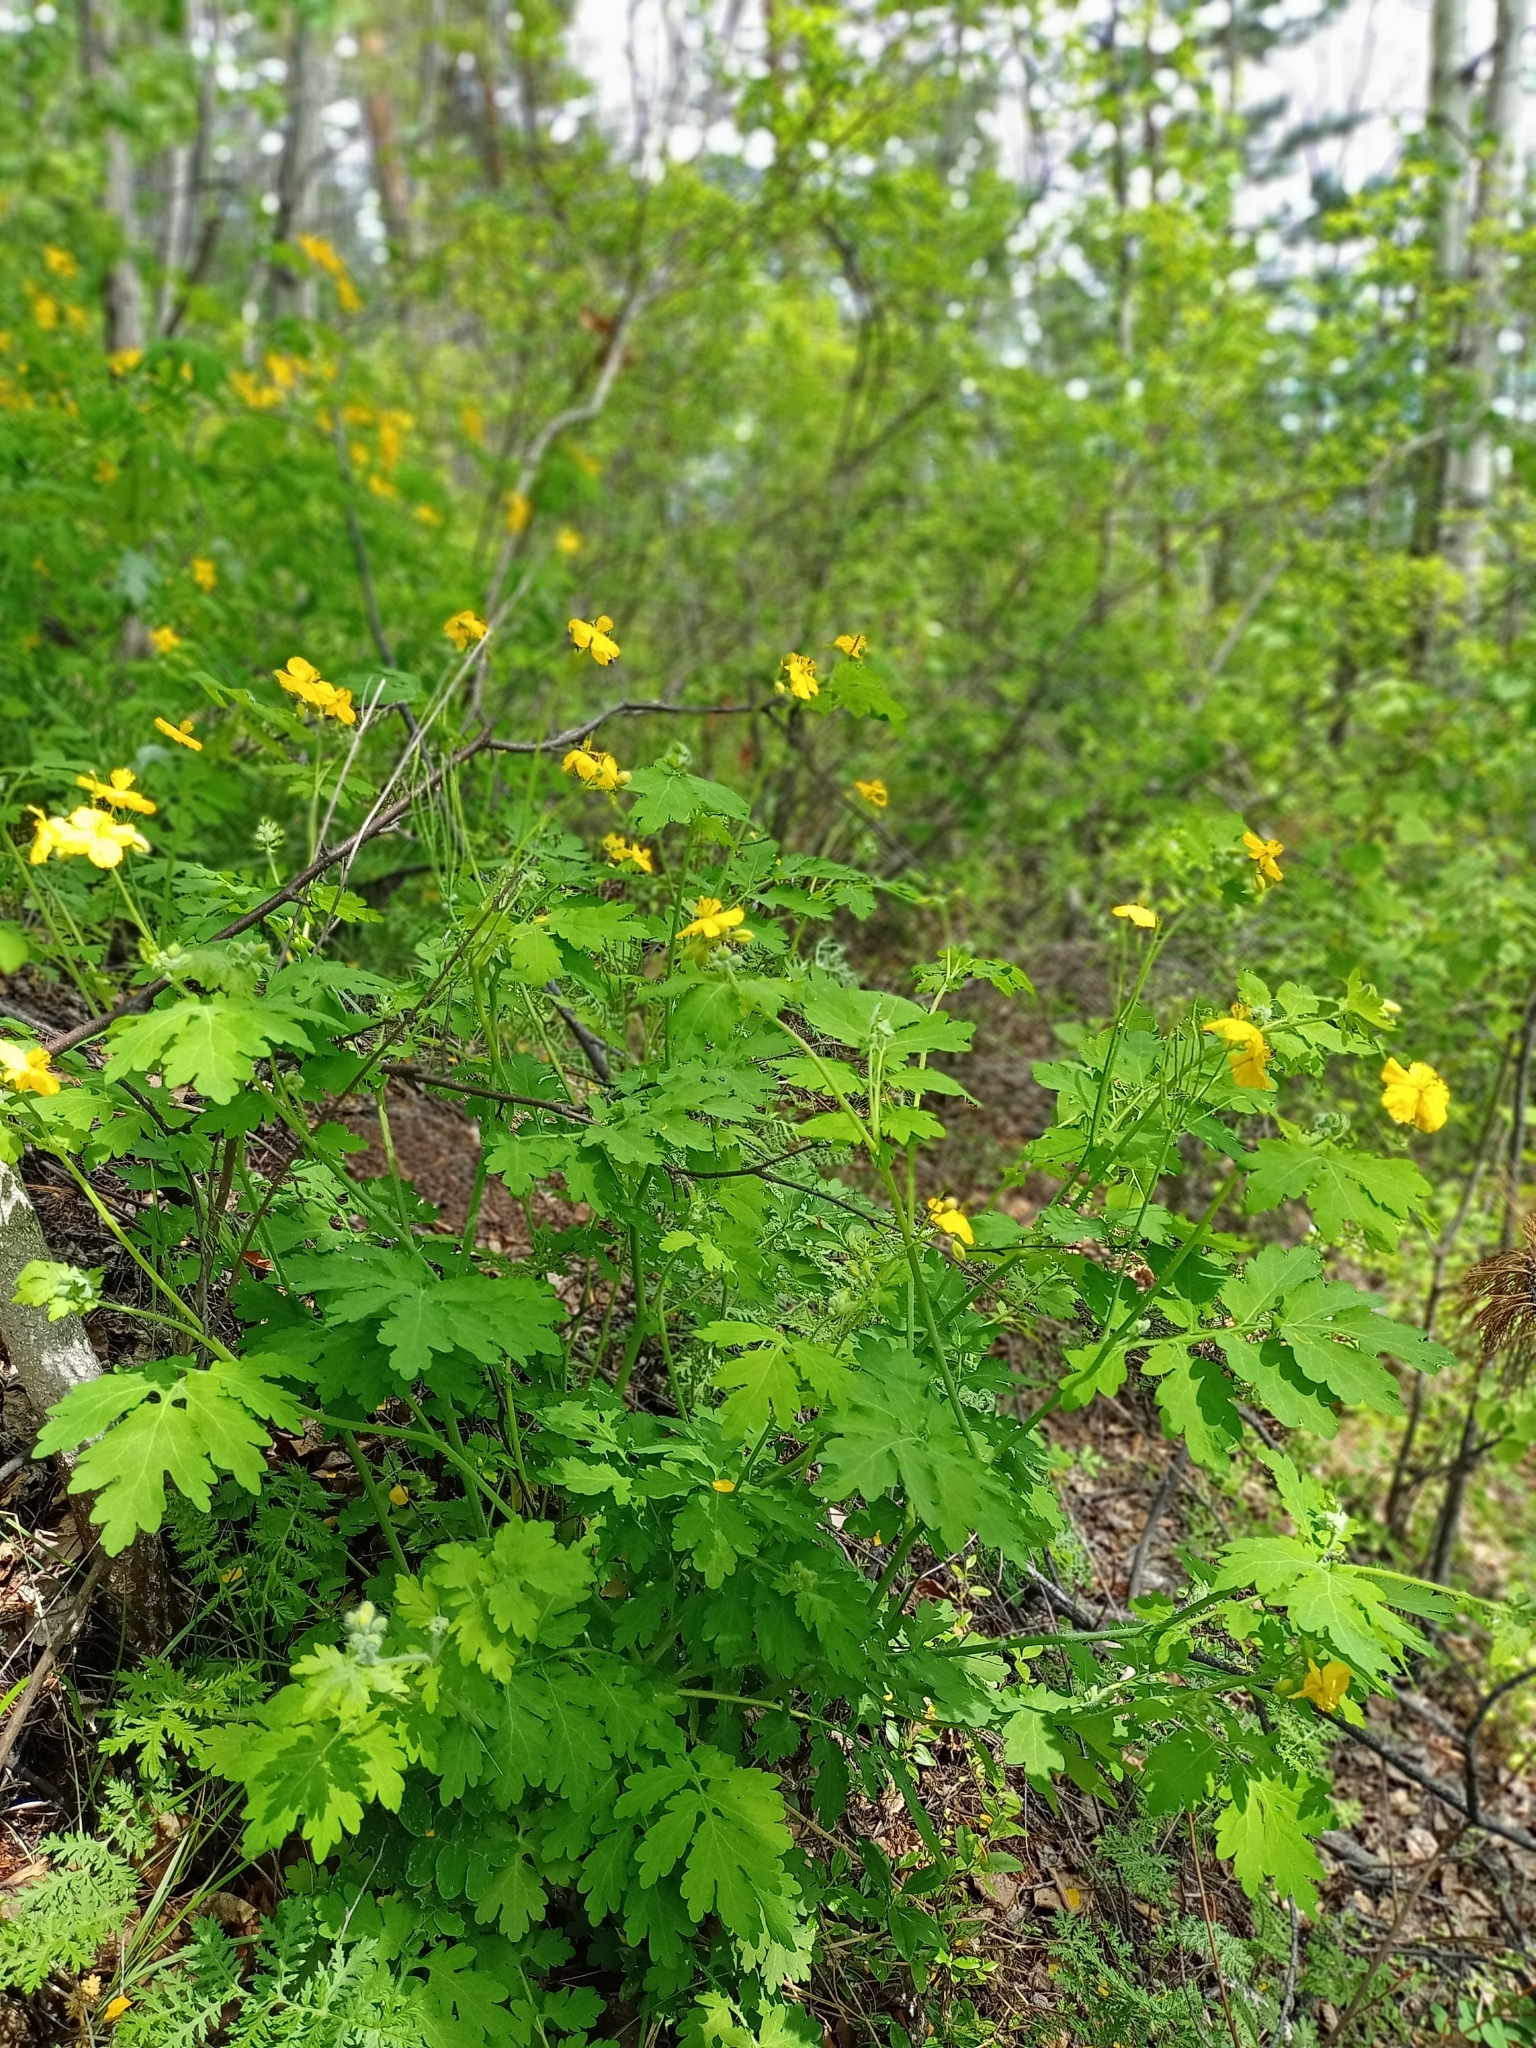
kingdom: Plantae
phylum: Tracheophyta
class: Magnoliopsida
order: Ranunculales
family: Papaveraceae
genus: Chelidonium
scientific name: Chelidonium majus
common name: Greater celandine
